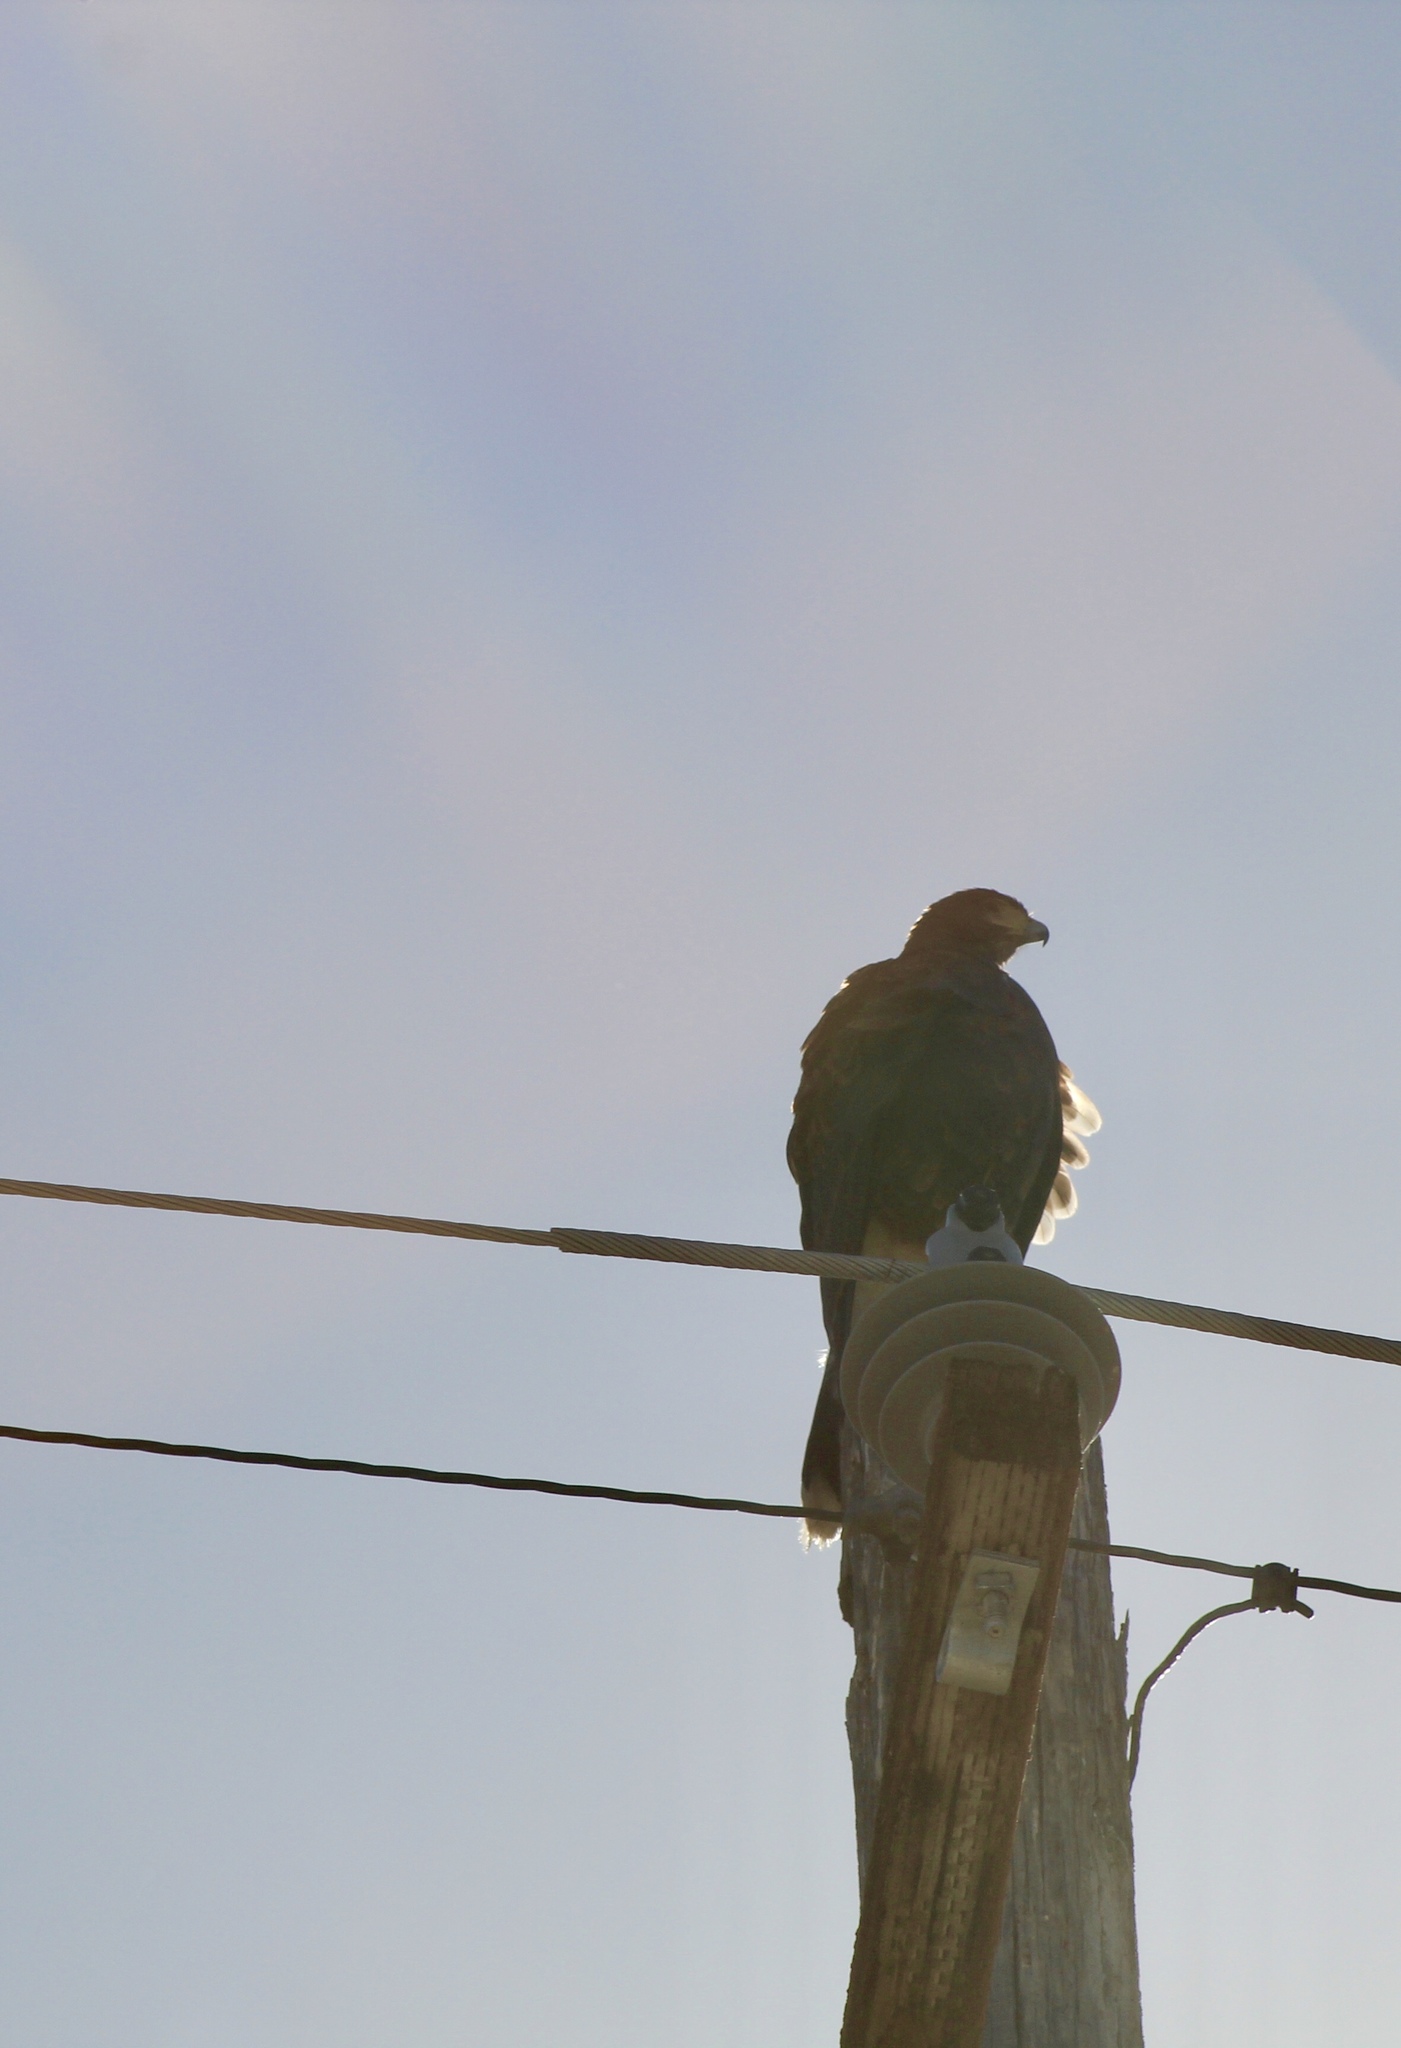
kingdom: Animalia
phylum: Chordata
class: Aves
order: Accipitriformes
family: Accipitridae
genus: Parabuteo
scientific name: Parabuteo unicinctus
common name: Harris's hawk
